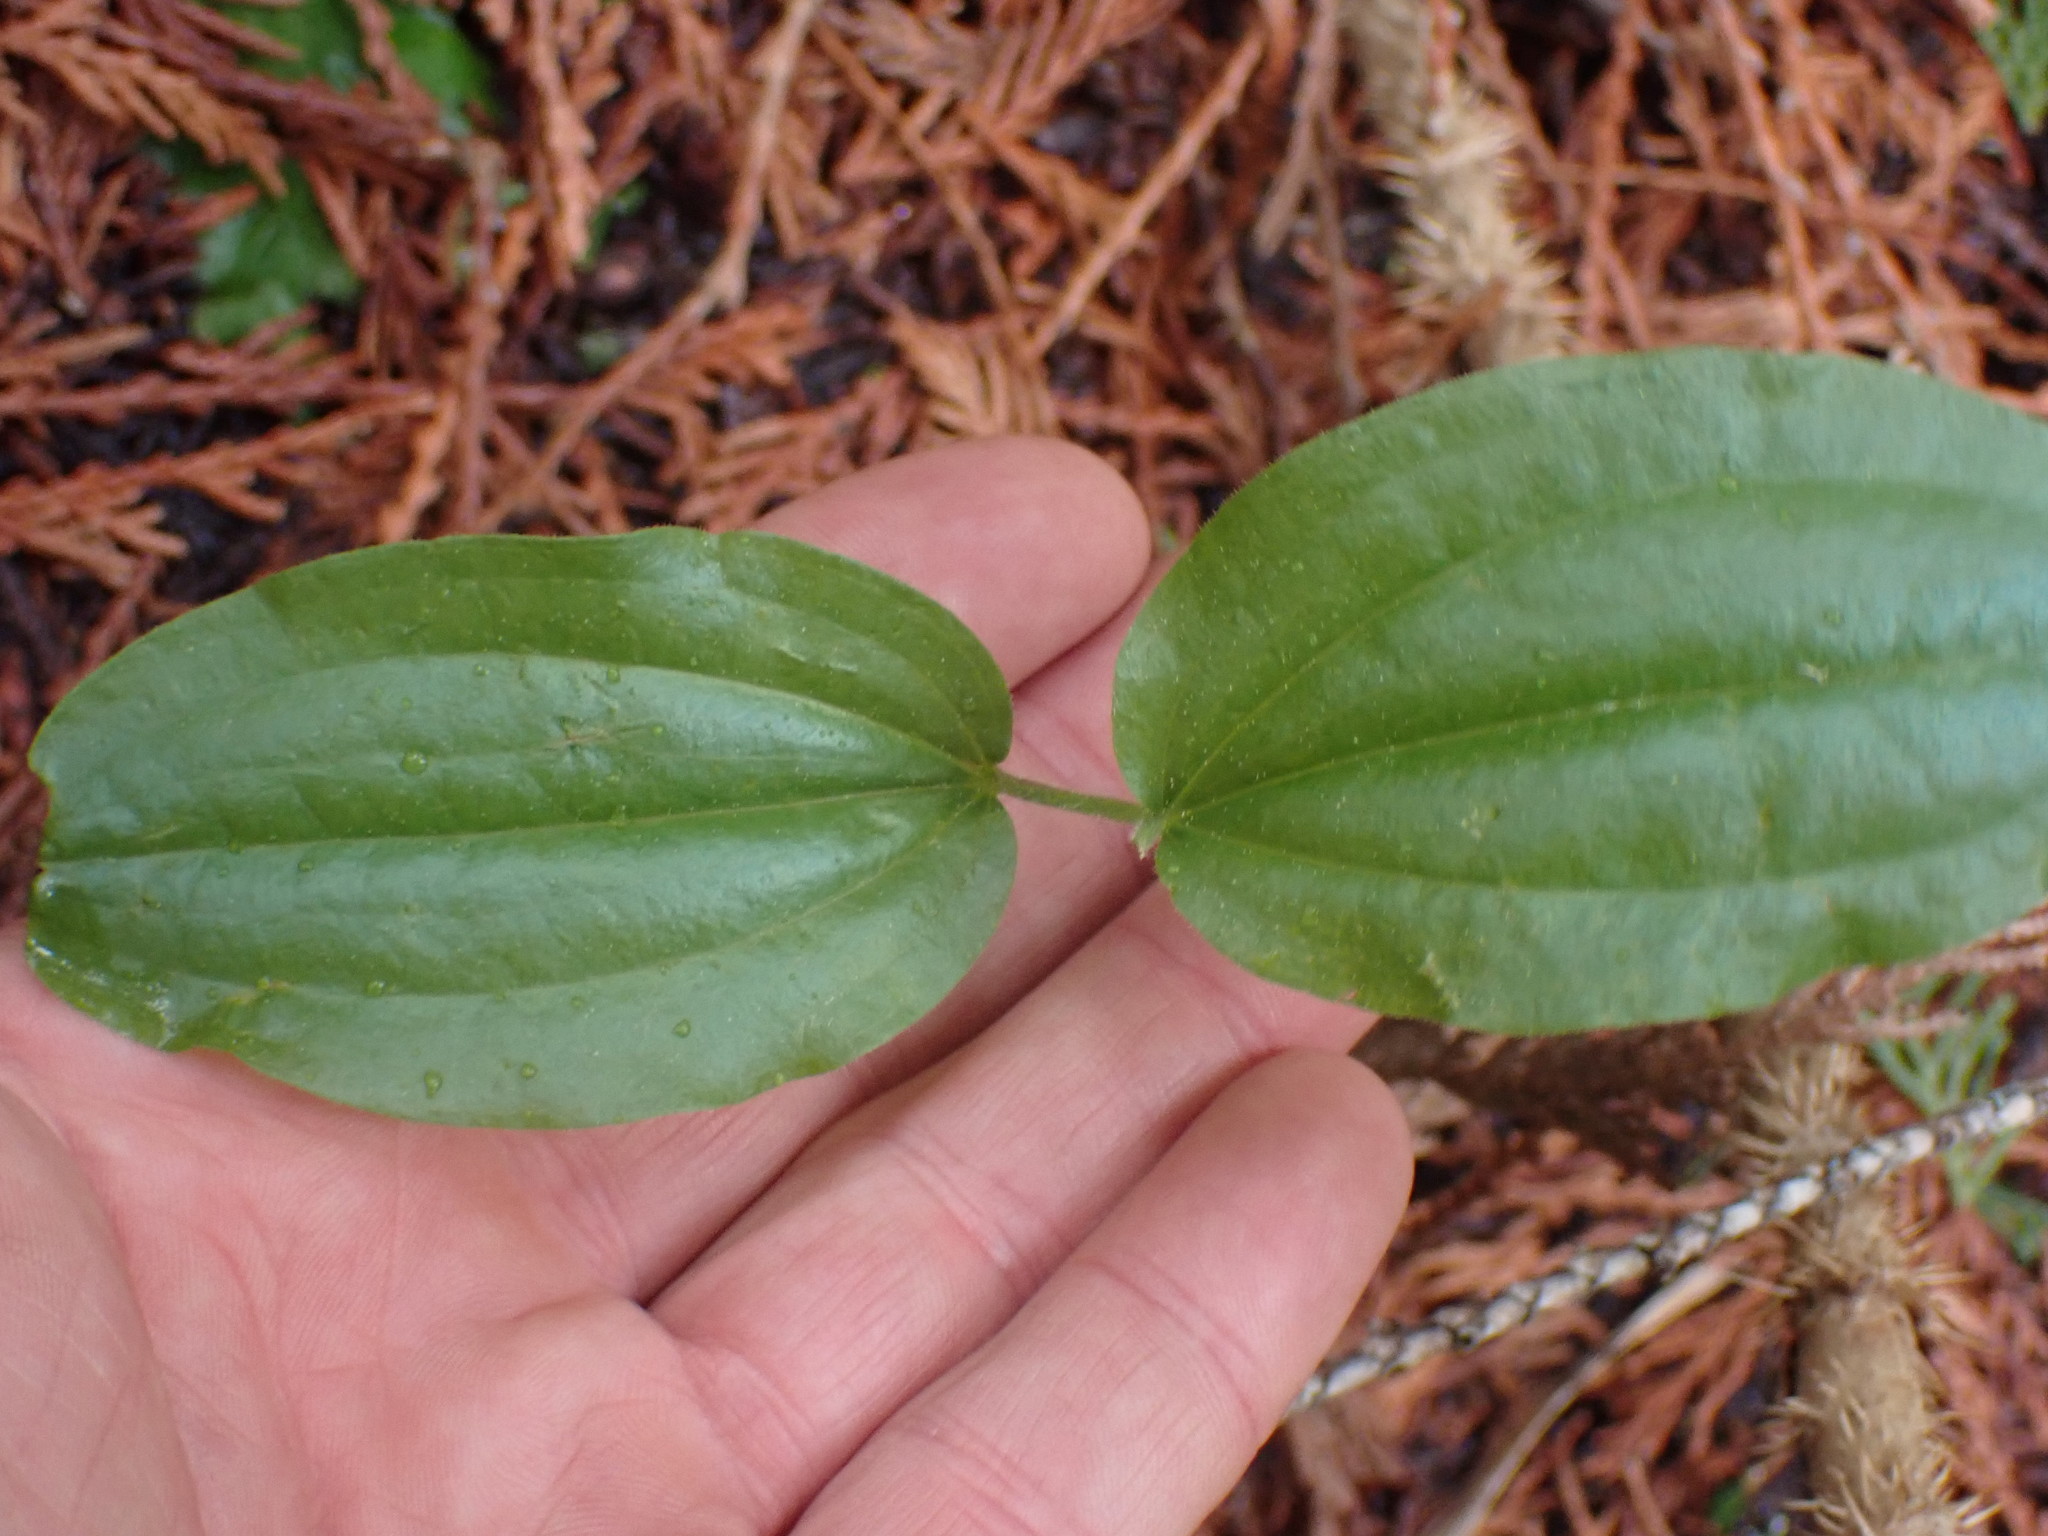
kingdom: Plantae
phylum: Tracheophyta
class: Liliopsida
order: Liliales
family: Liliaceae
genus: Prosartes
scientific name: Prosartes trachycarpa
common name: Rough-fruit fairy-bells
